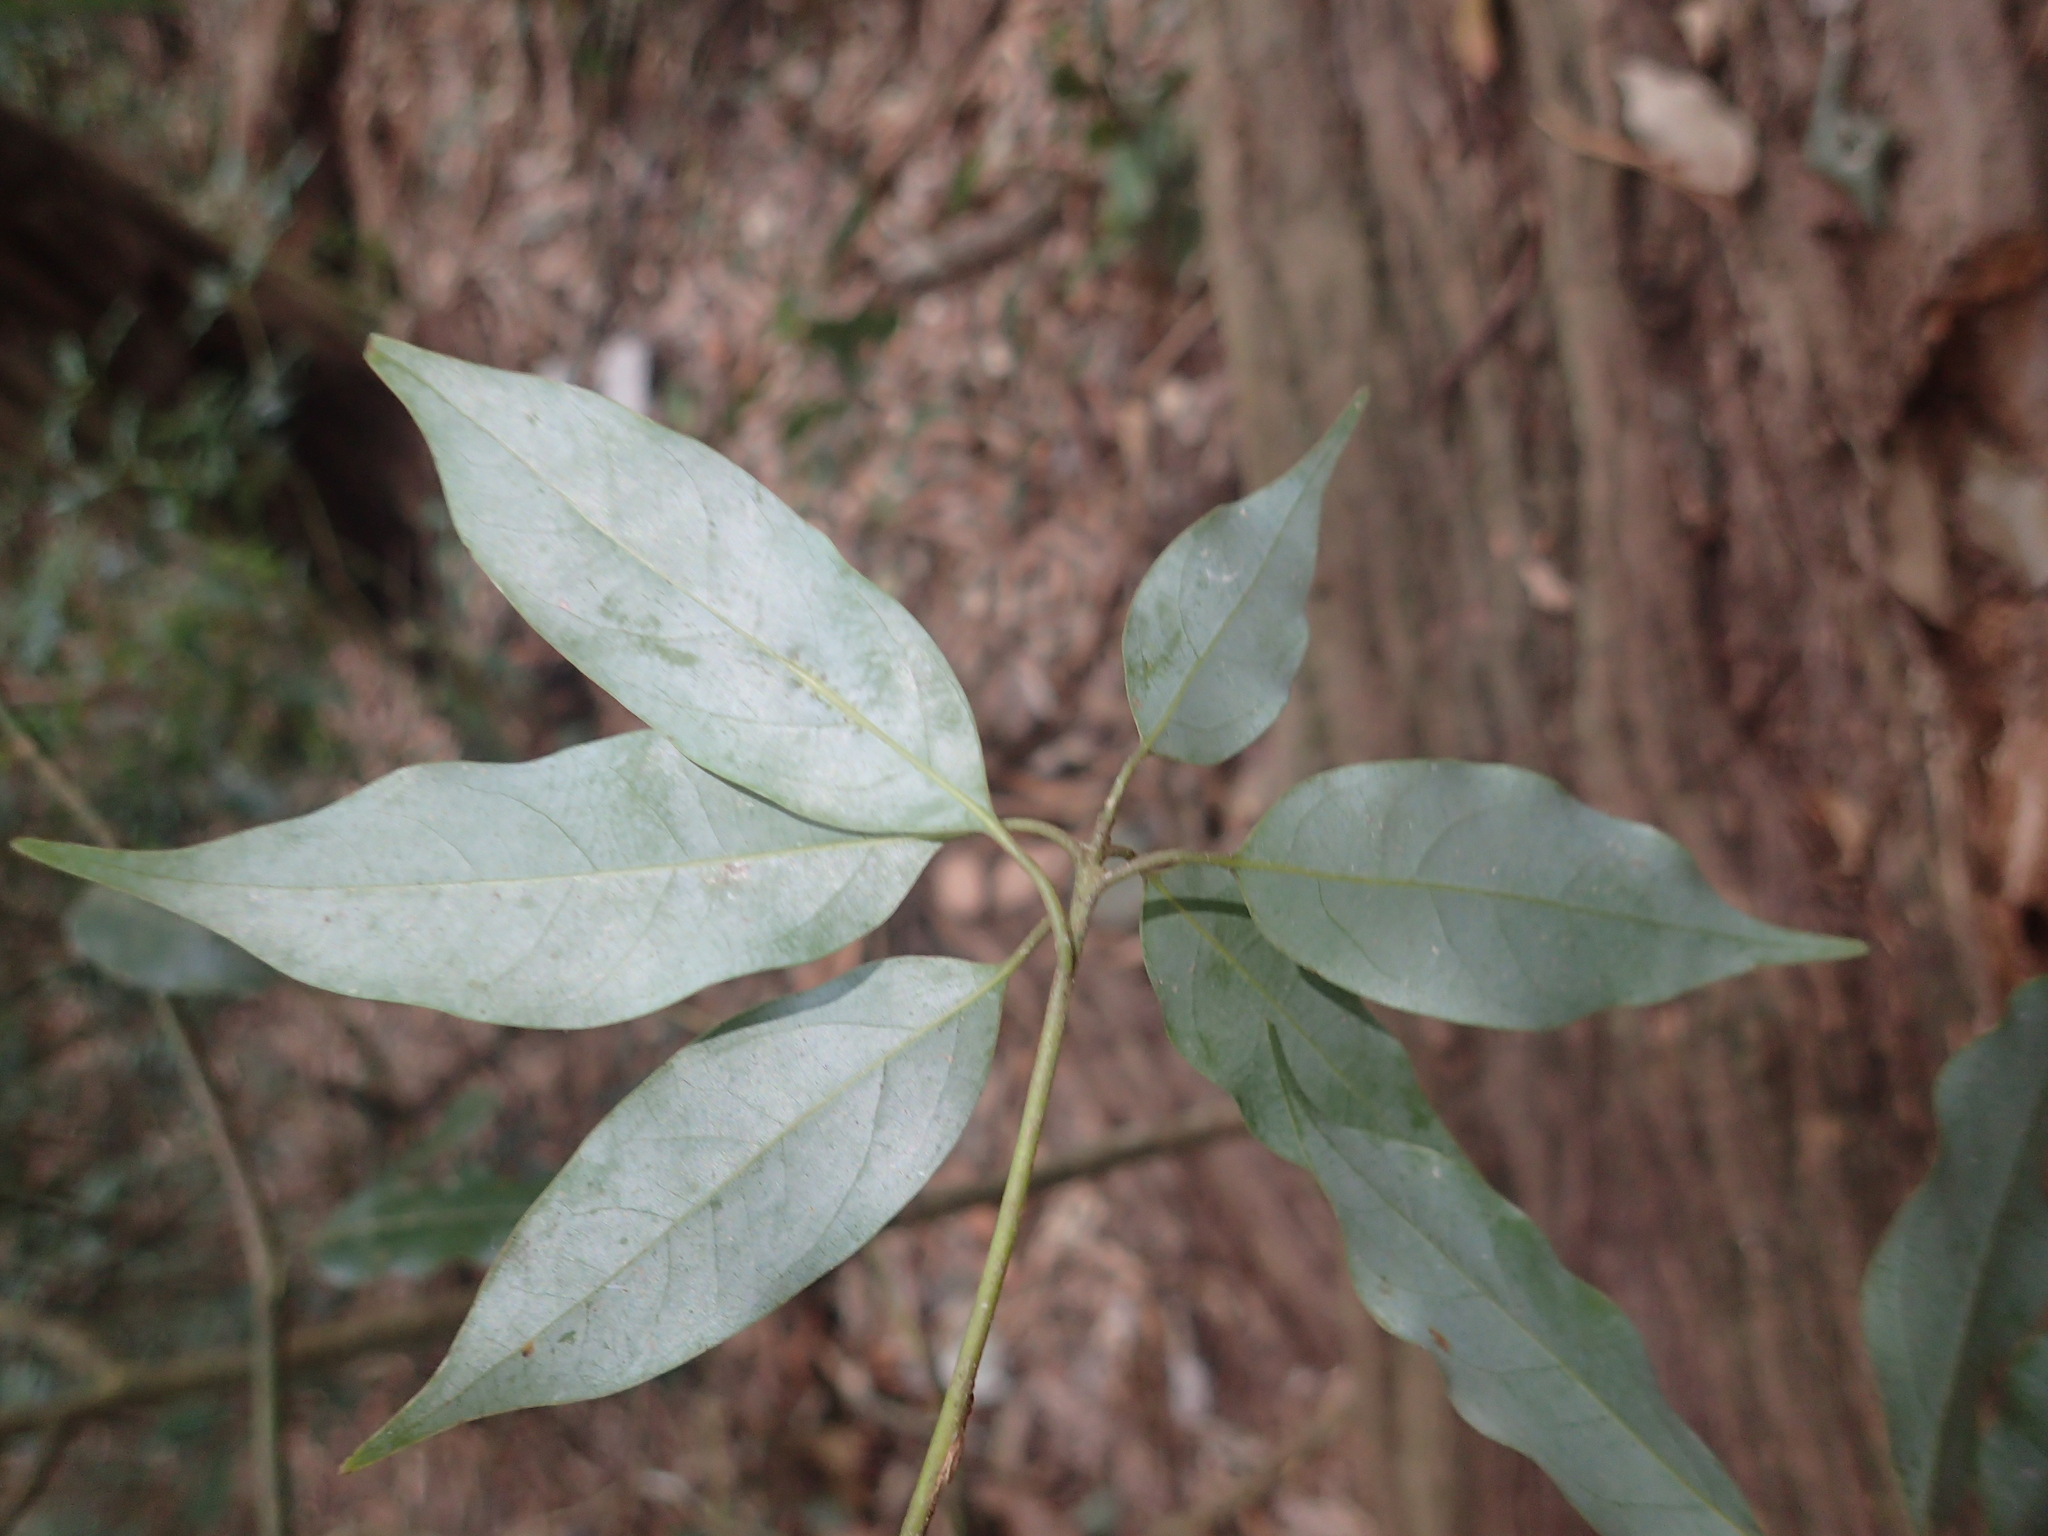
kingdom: Plantae
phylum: Tracheophyta
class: Magnoliopsida
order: Laurales
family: Lauraceae
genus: Neolitsea
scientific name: Neolitsea acuminatissima
